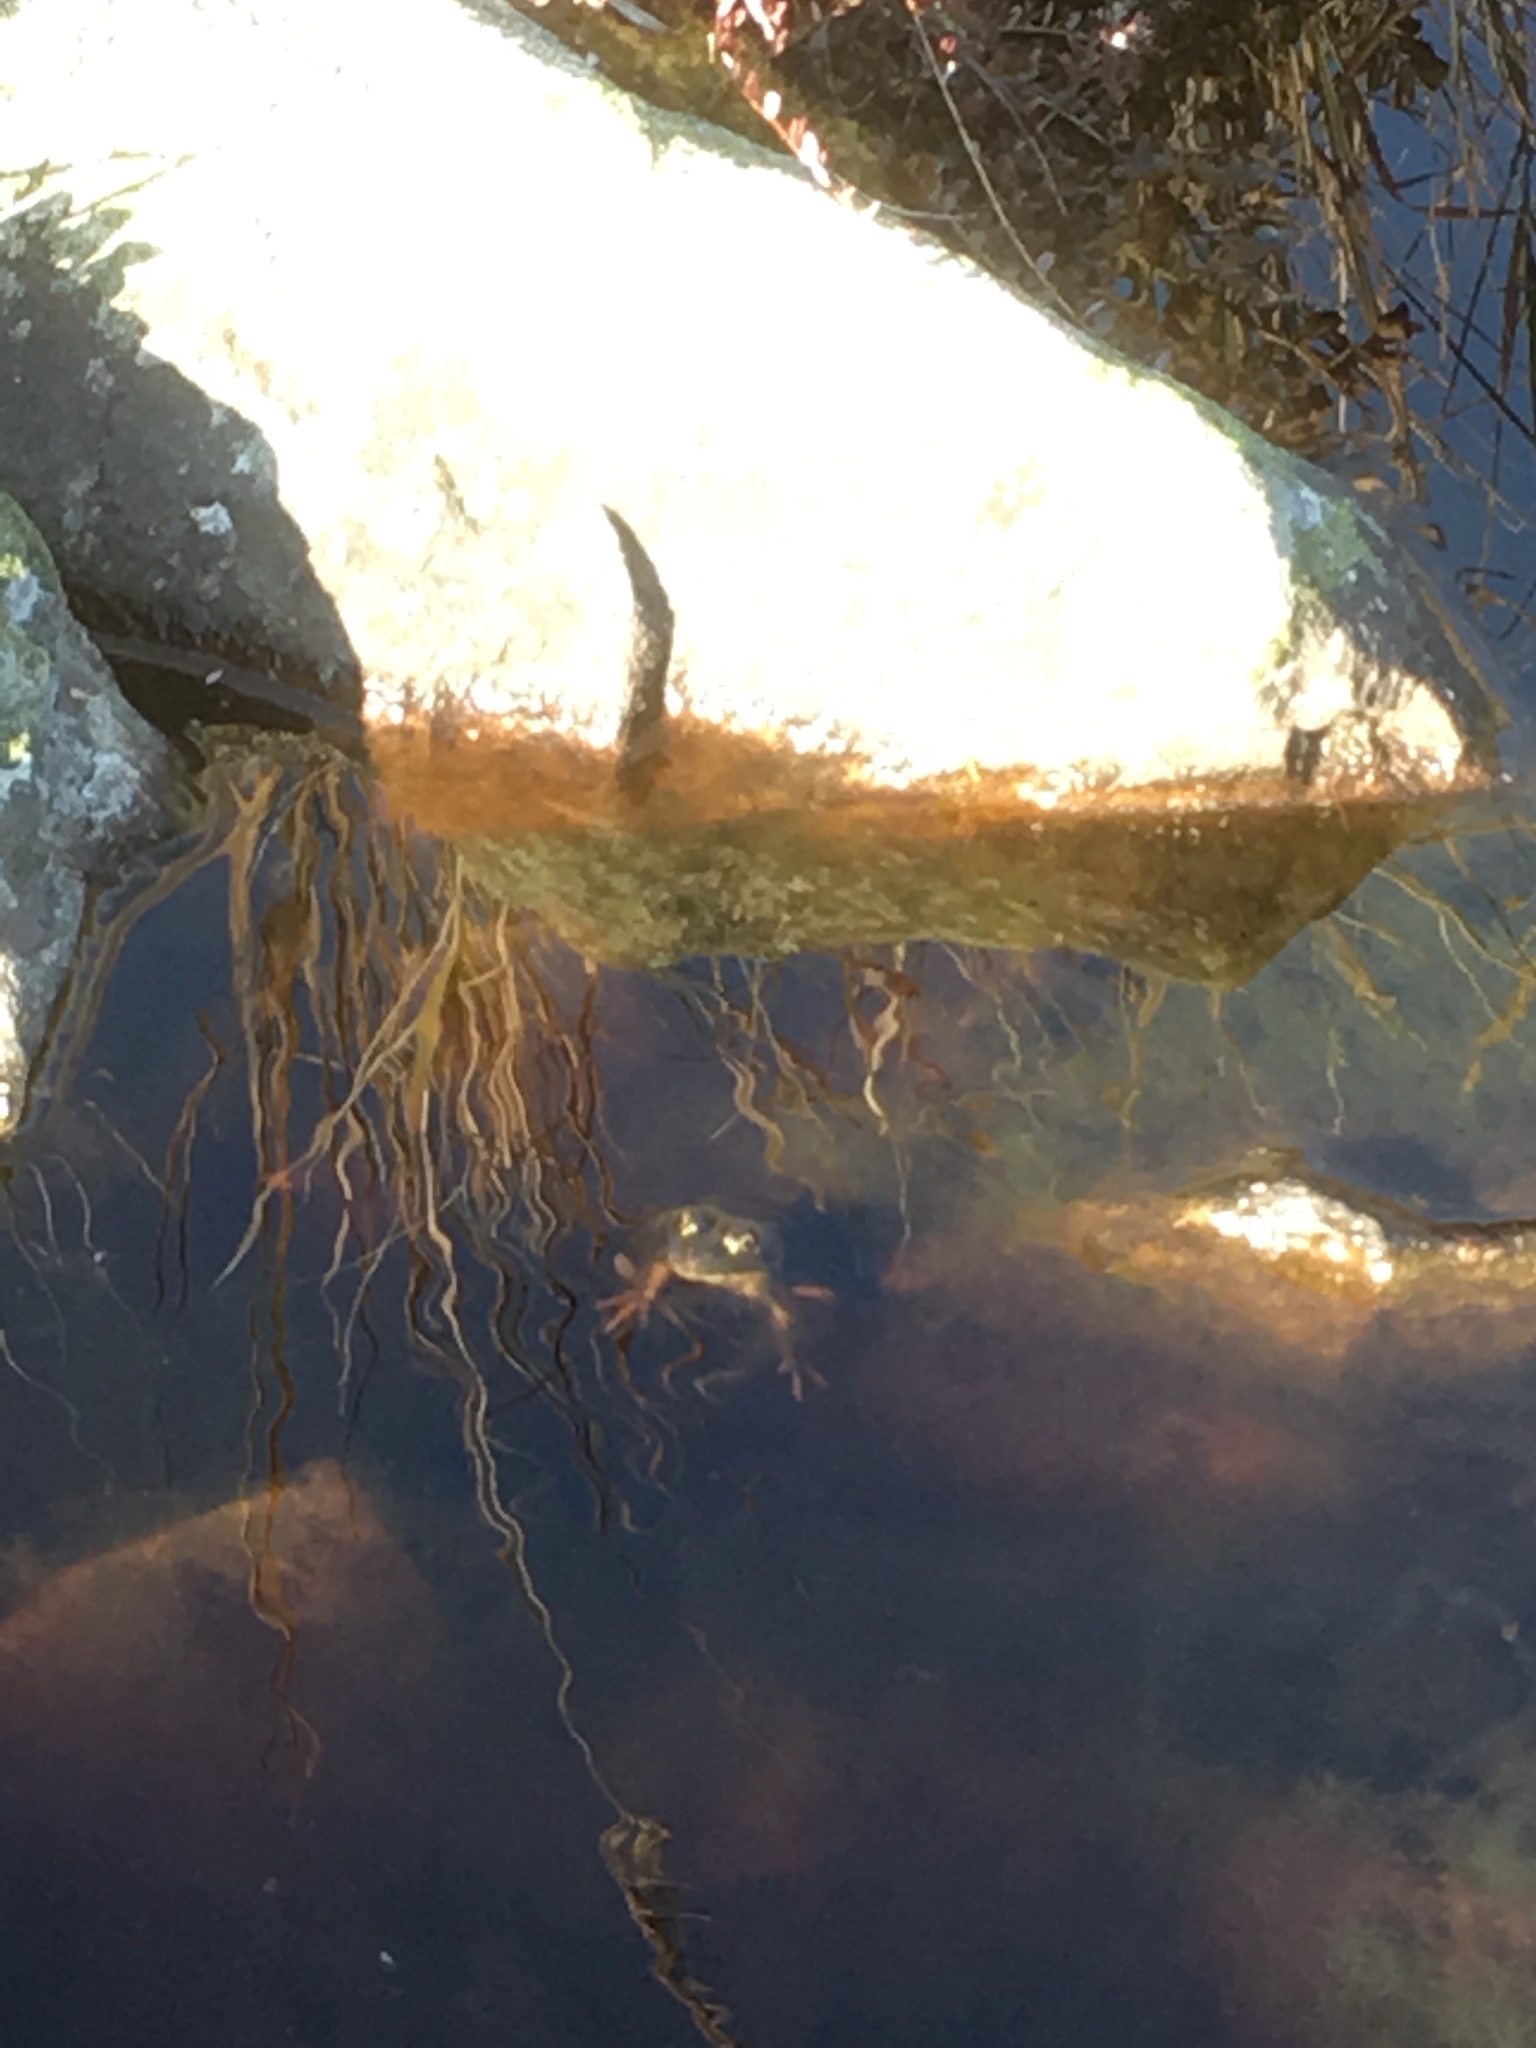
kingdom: Animalia
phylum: Chordata
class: Amphibia
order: Anura
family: Ranidae
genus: Lithobates
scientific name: Lithobates clamitans
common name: Green frog
